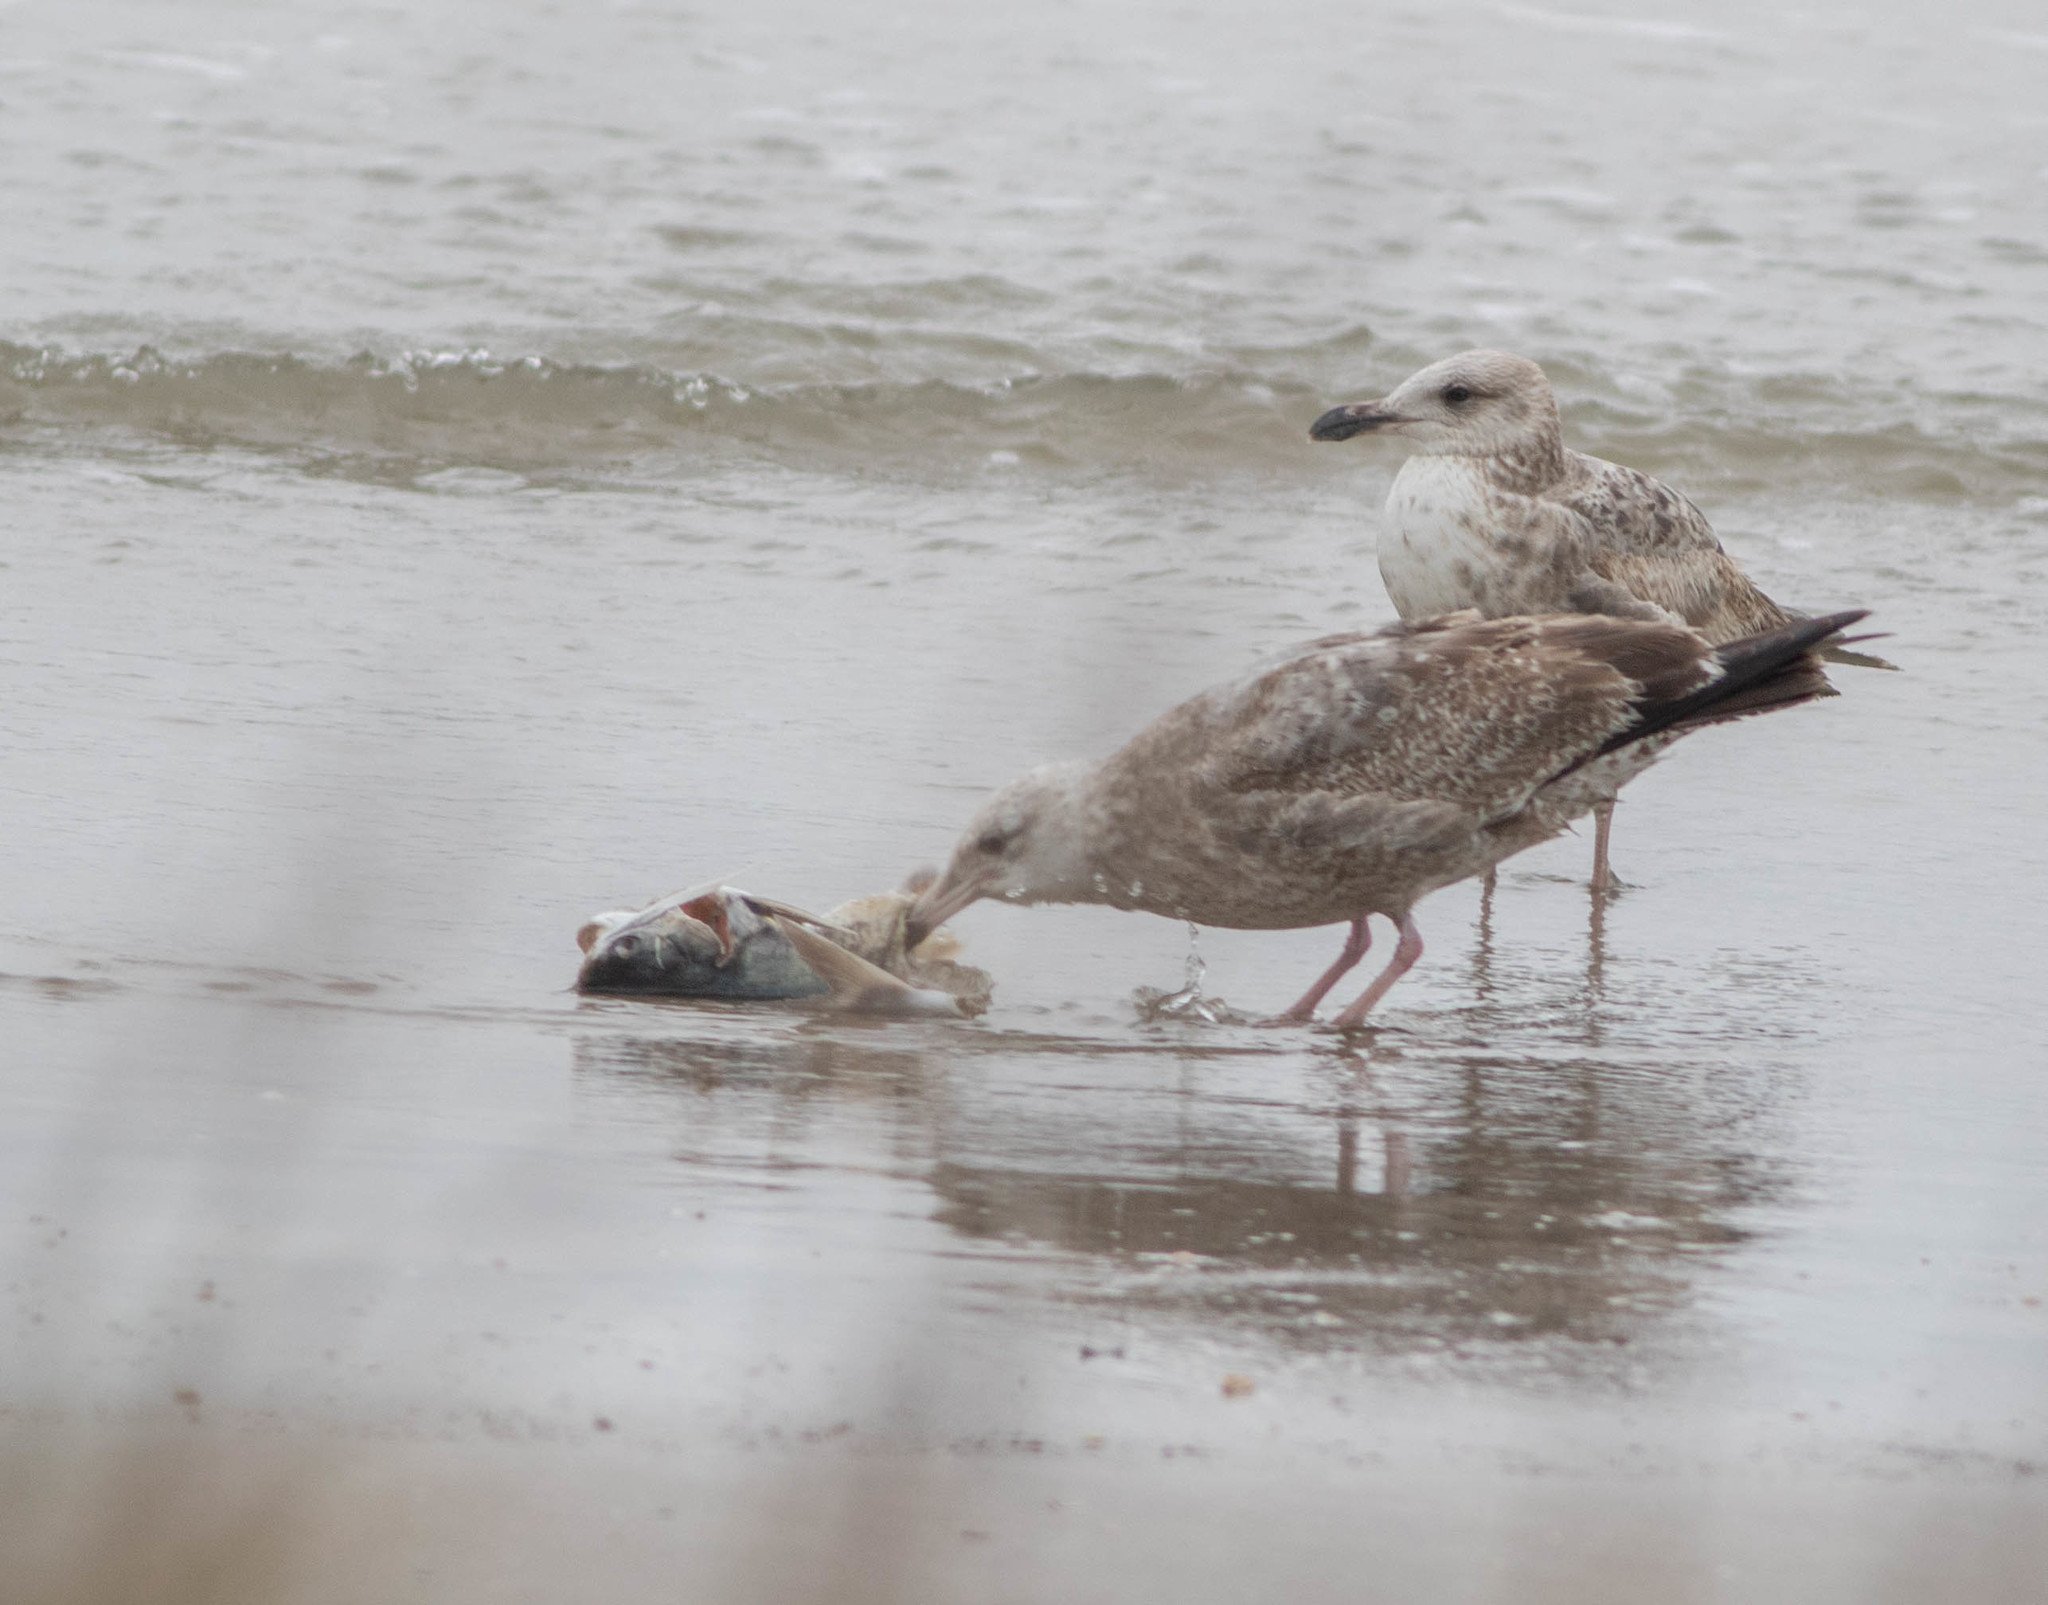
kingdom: Animalia
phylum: Chordata
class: Aves
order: Charadriiformes
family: Laridae
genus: Larus
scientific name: Larus argentatus
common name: Herring gull
